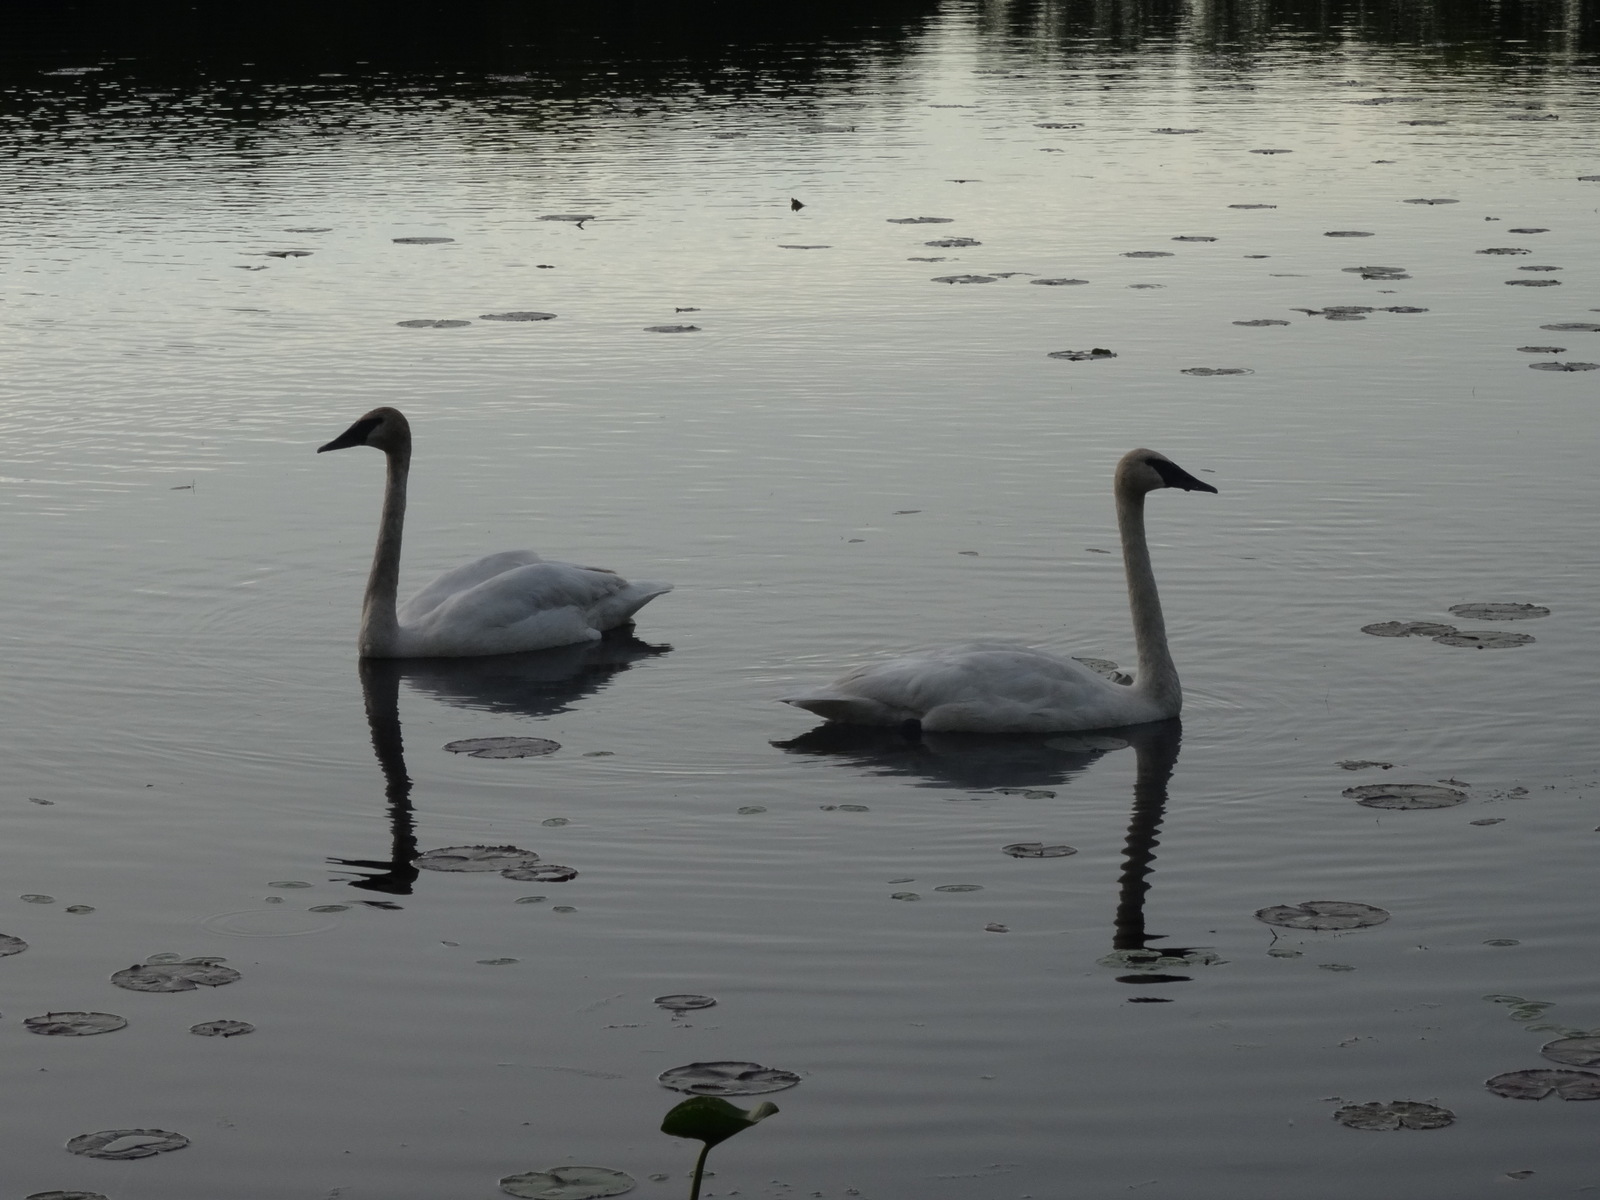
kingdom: Animalia
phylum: Chordata
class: Aves
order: Anseriformes
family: Anatidae
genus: Cygnus
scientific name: Cygnus buccinator
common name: Trumpeter swan
